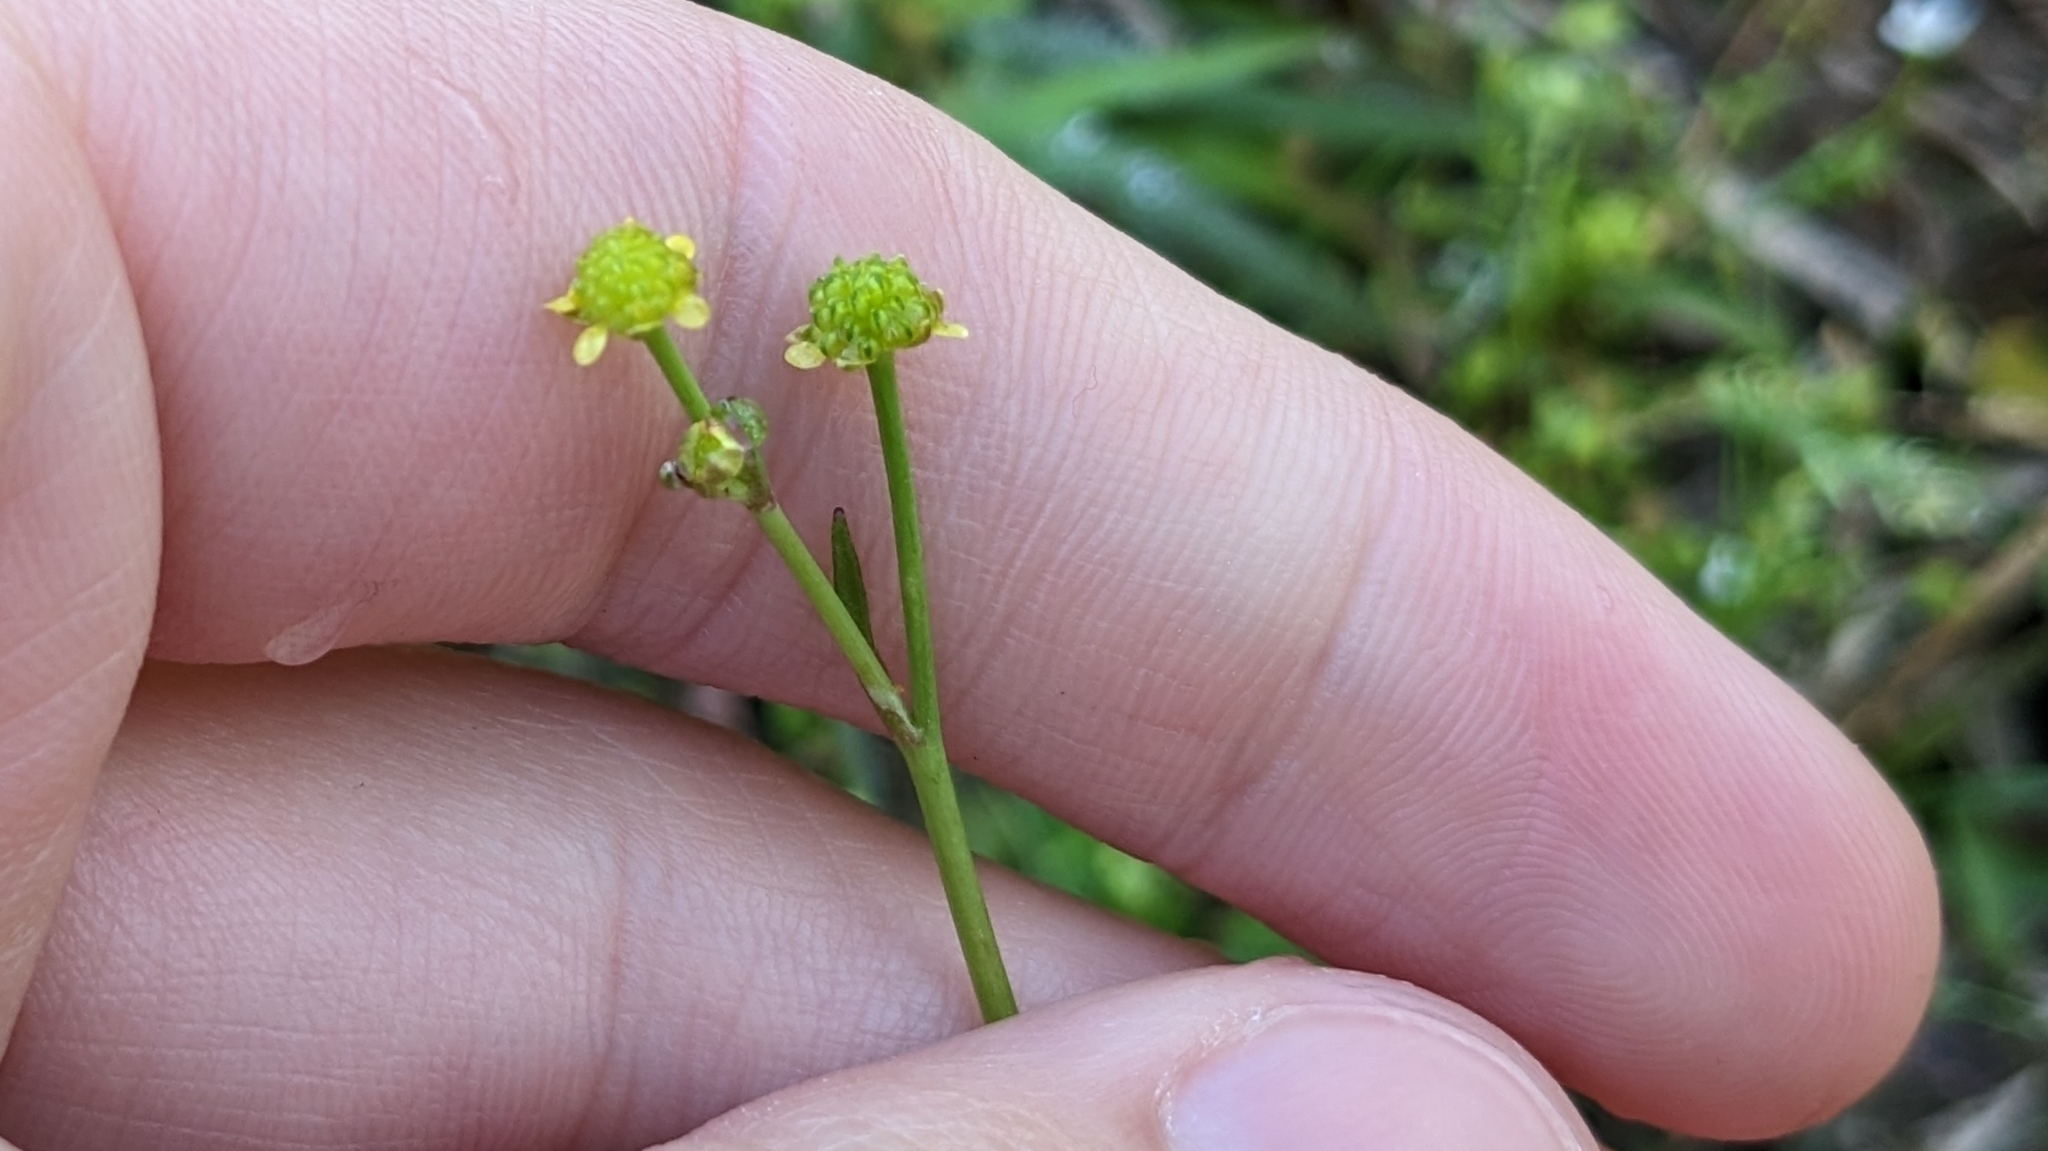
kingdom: Plantae
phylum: Tracheophyta
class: Magnoliopsida
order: Ranunculales
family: Ranunculaceae
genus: Ranunculus
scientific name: Ranunculus pusillus
